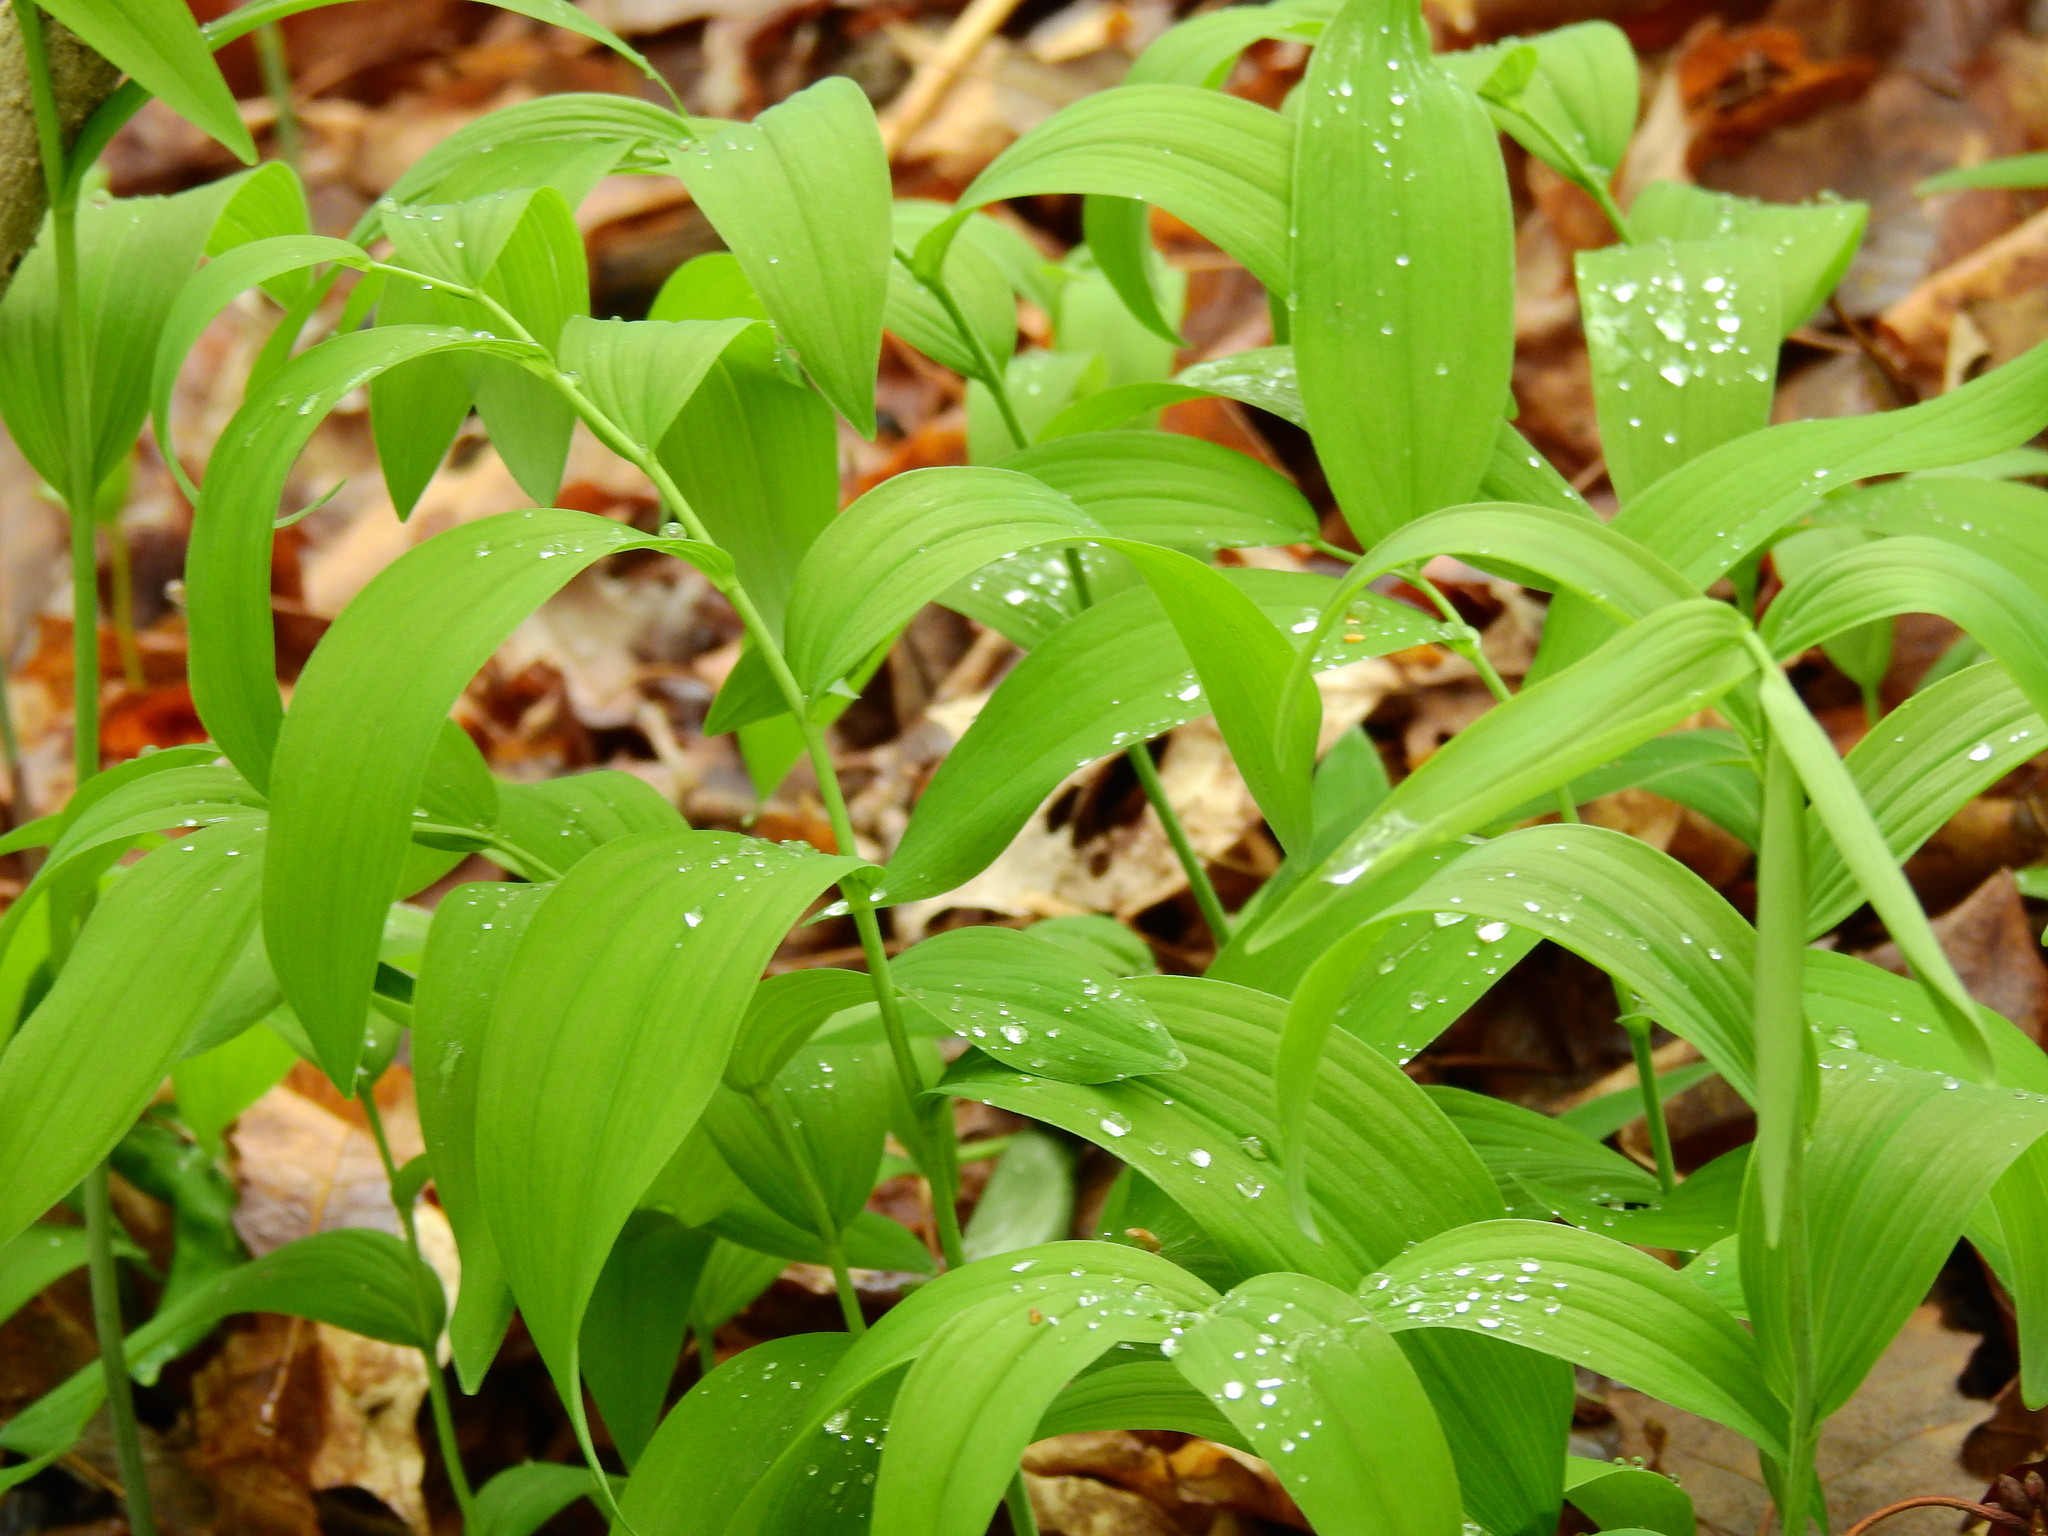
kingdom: Plantae
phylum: Tracheophyta
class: Liliopsida
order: Asparagales
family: Asparagaceae
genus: Polygonatum
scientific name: Polygonatum biflorum
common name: American solomon's-seal
